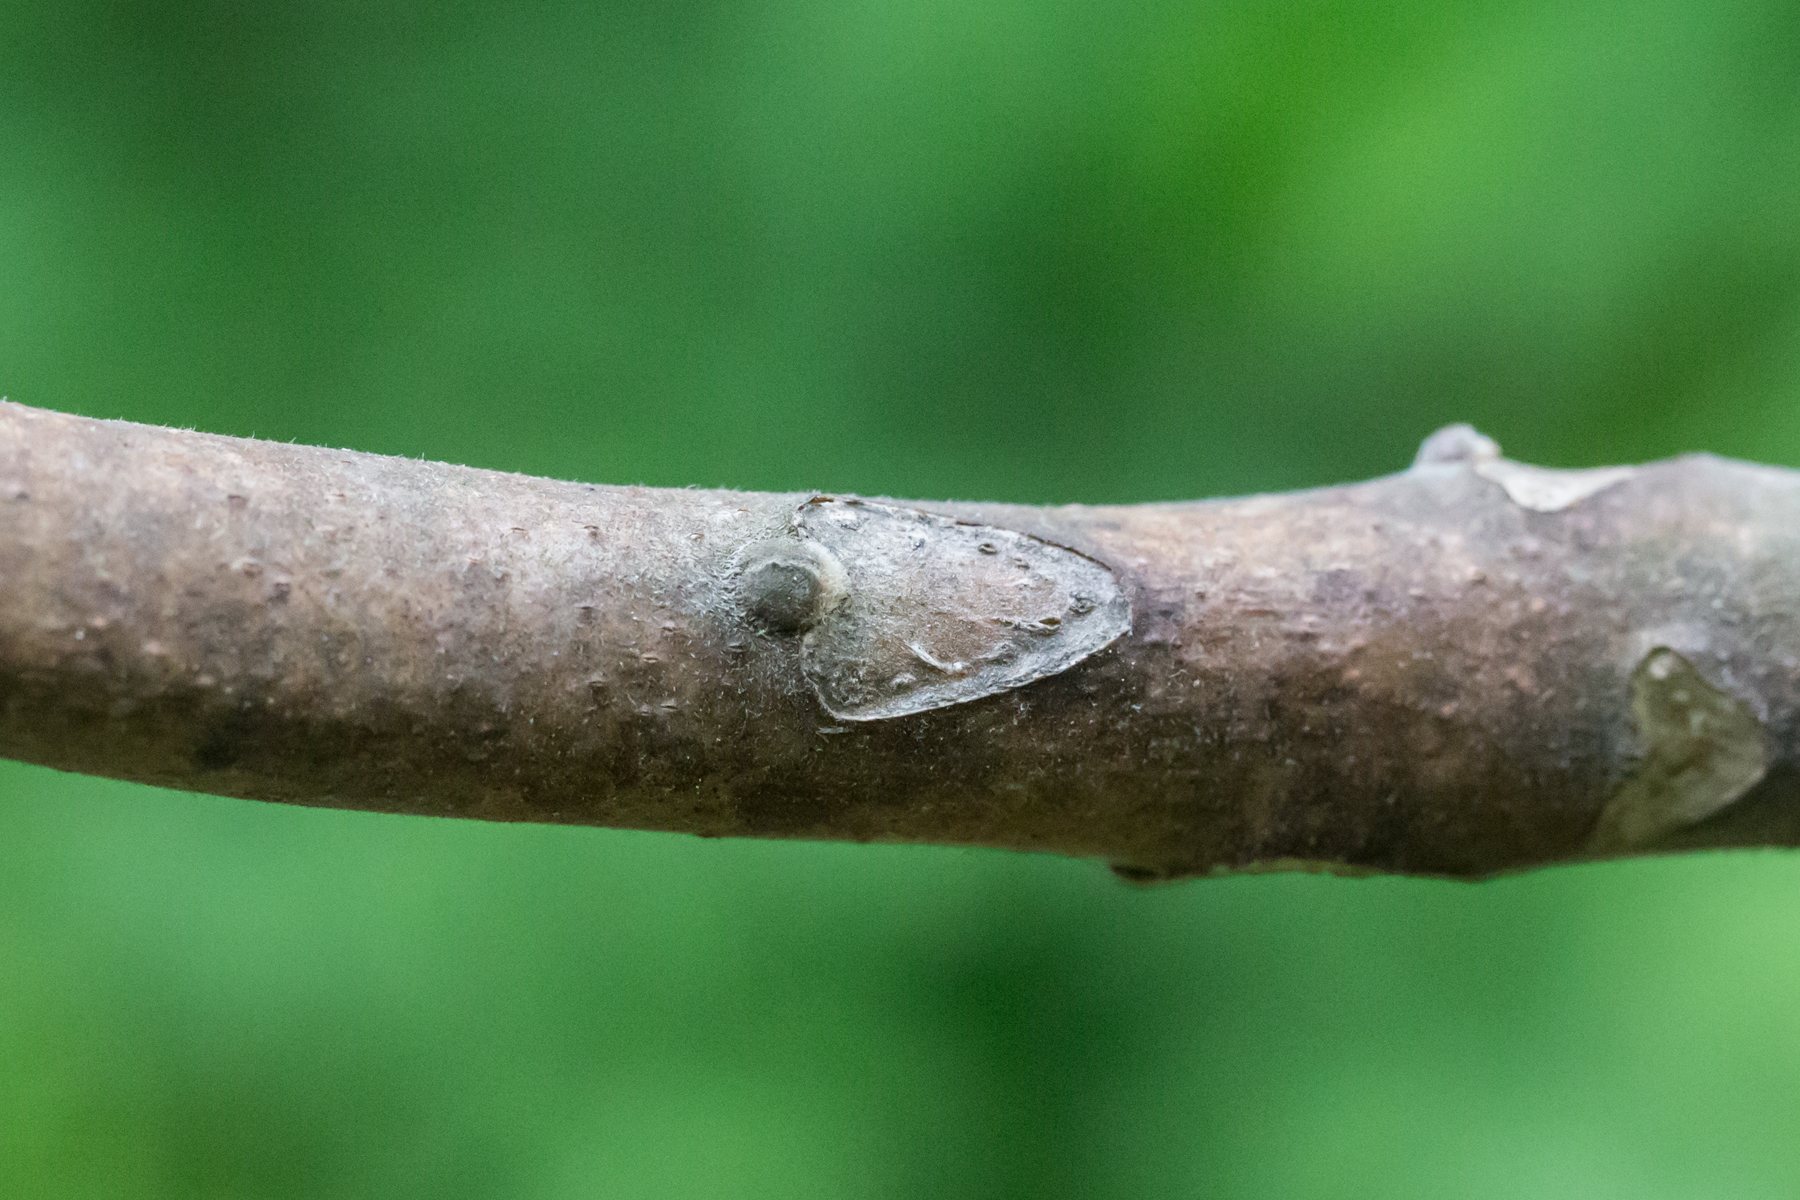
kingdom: Plantae
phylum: Tracheophyta
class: Magnoliopsida
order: Sapindales
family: Simaroubaceae
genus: Ailanthus
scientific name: Ailanthus altissima
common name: Tree-of-heaven
